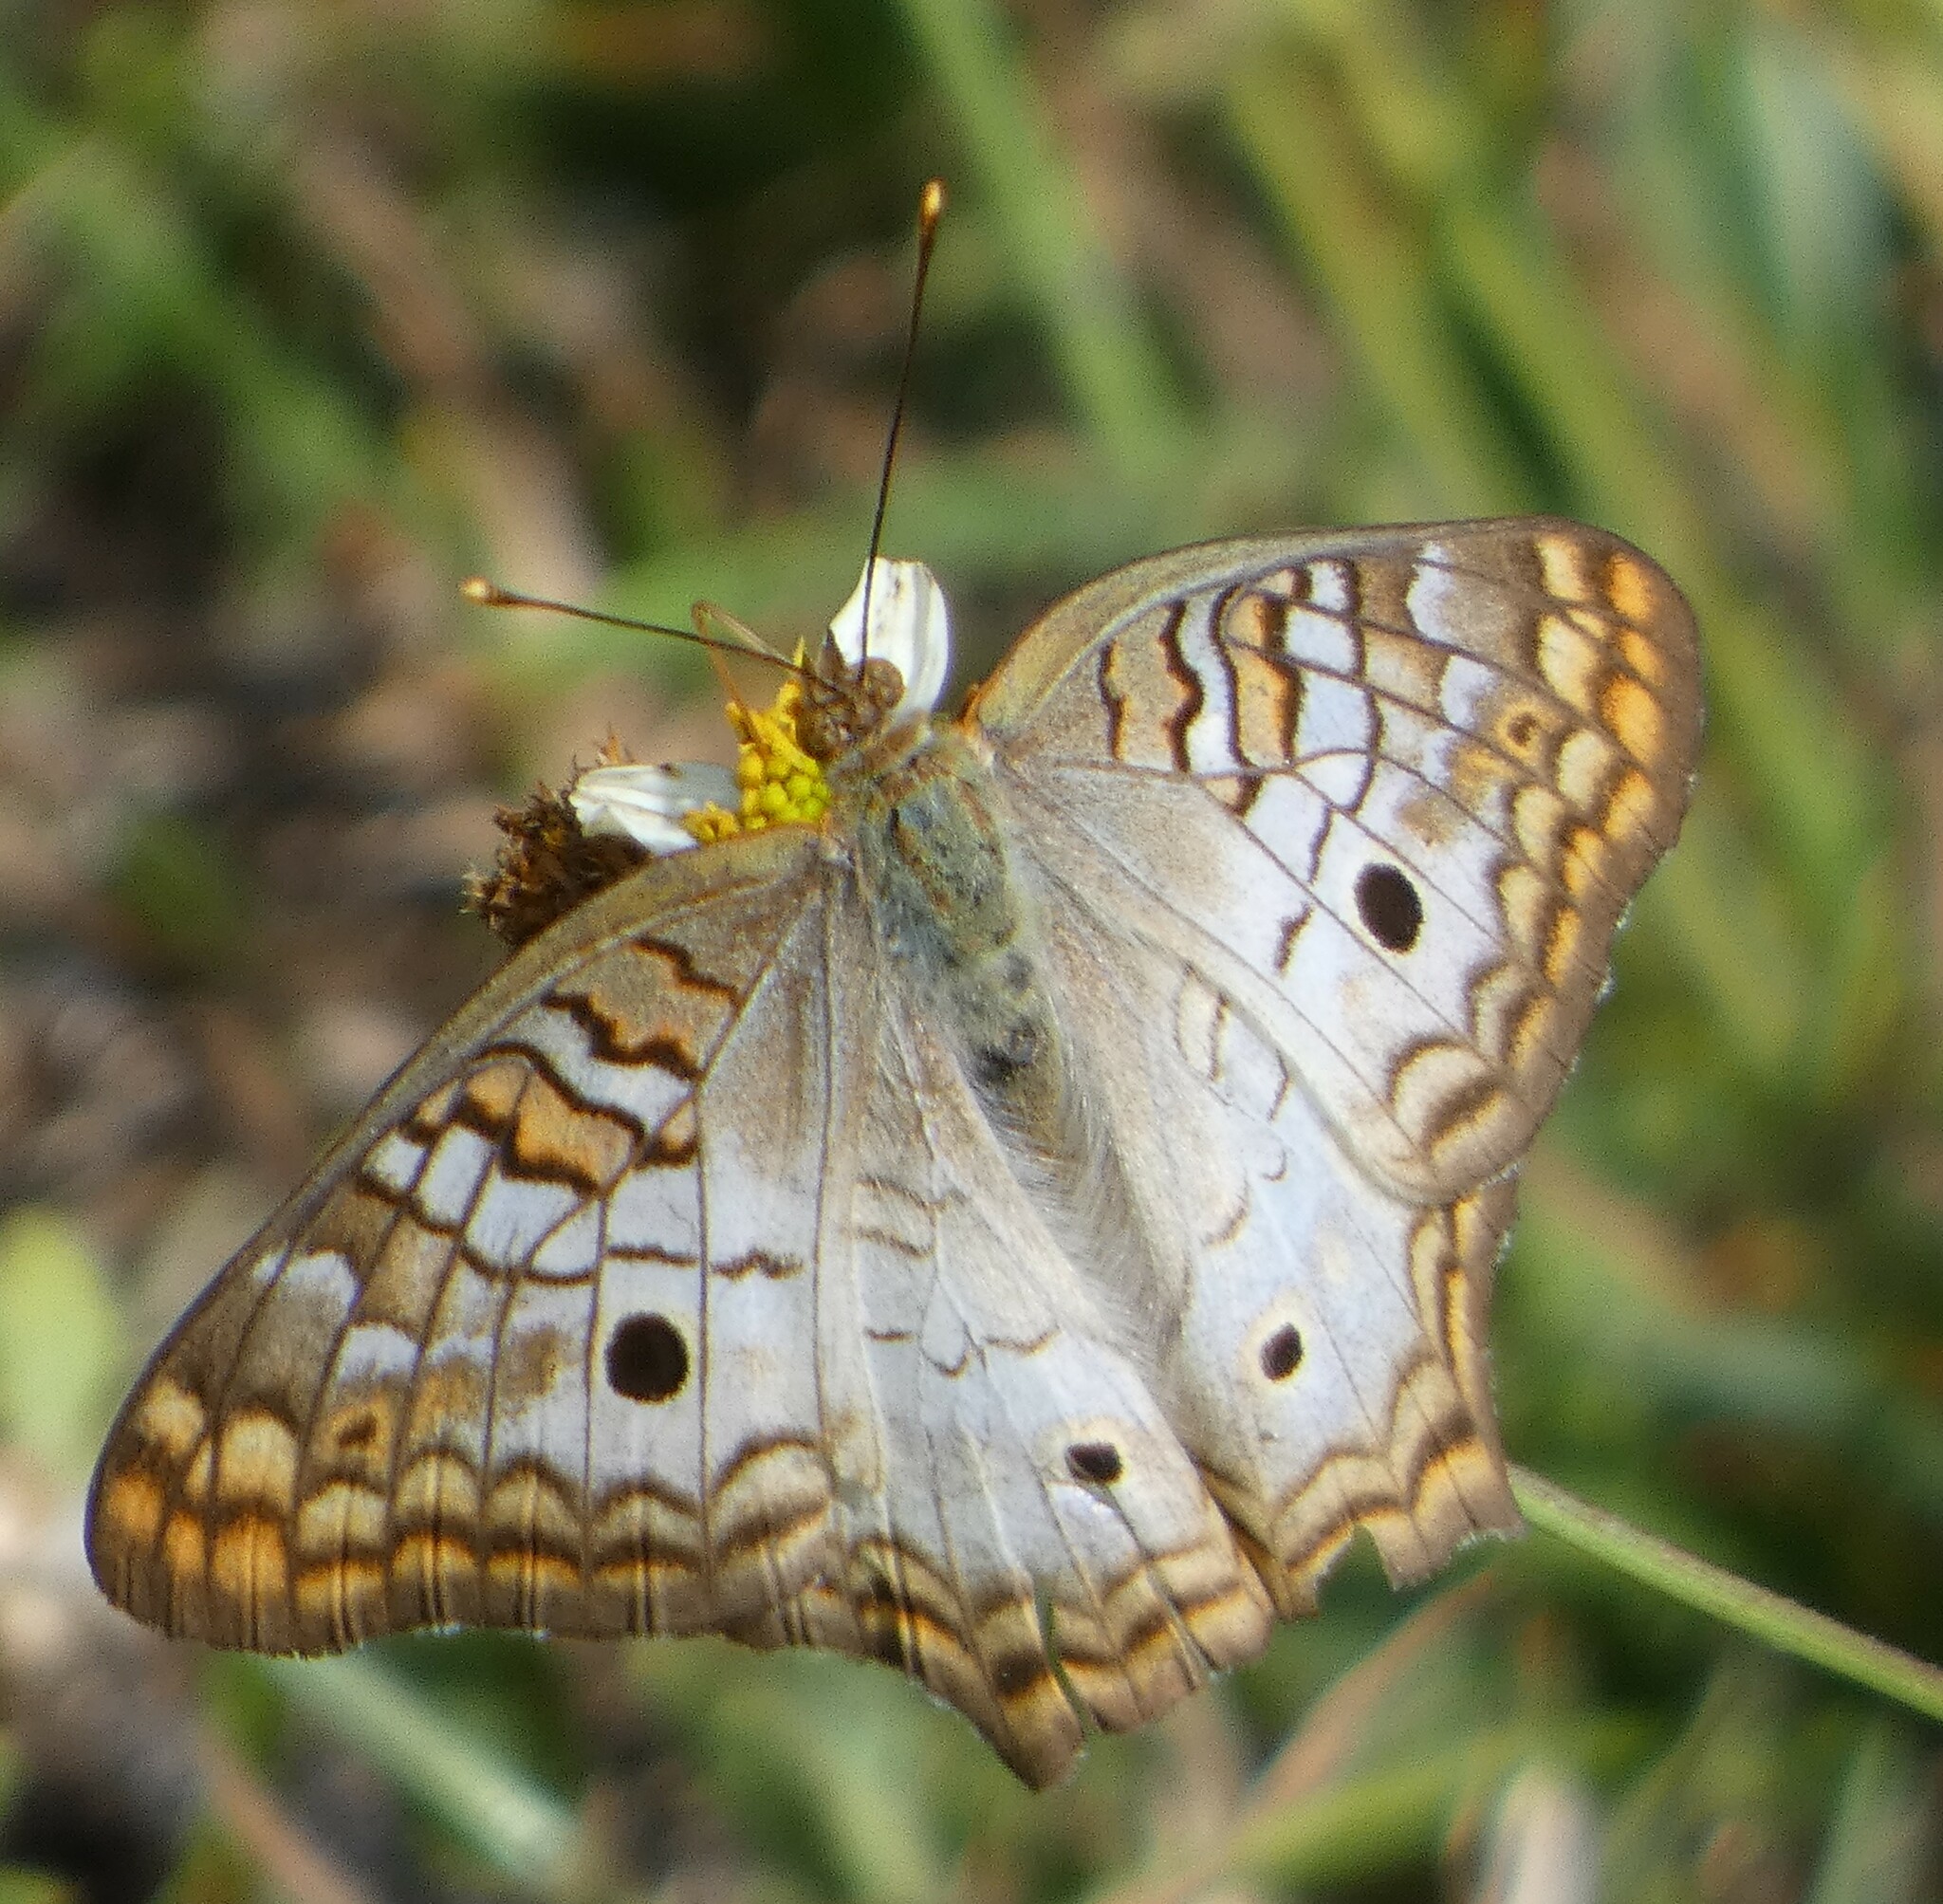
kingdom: Animalia
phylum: Arthropoda
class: Insecta
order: Lepidoptera
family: Nymphalidae
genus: Anartia
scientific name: Anartia jatrophae
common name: White peacock
